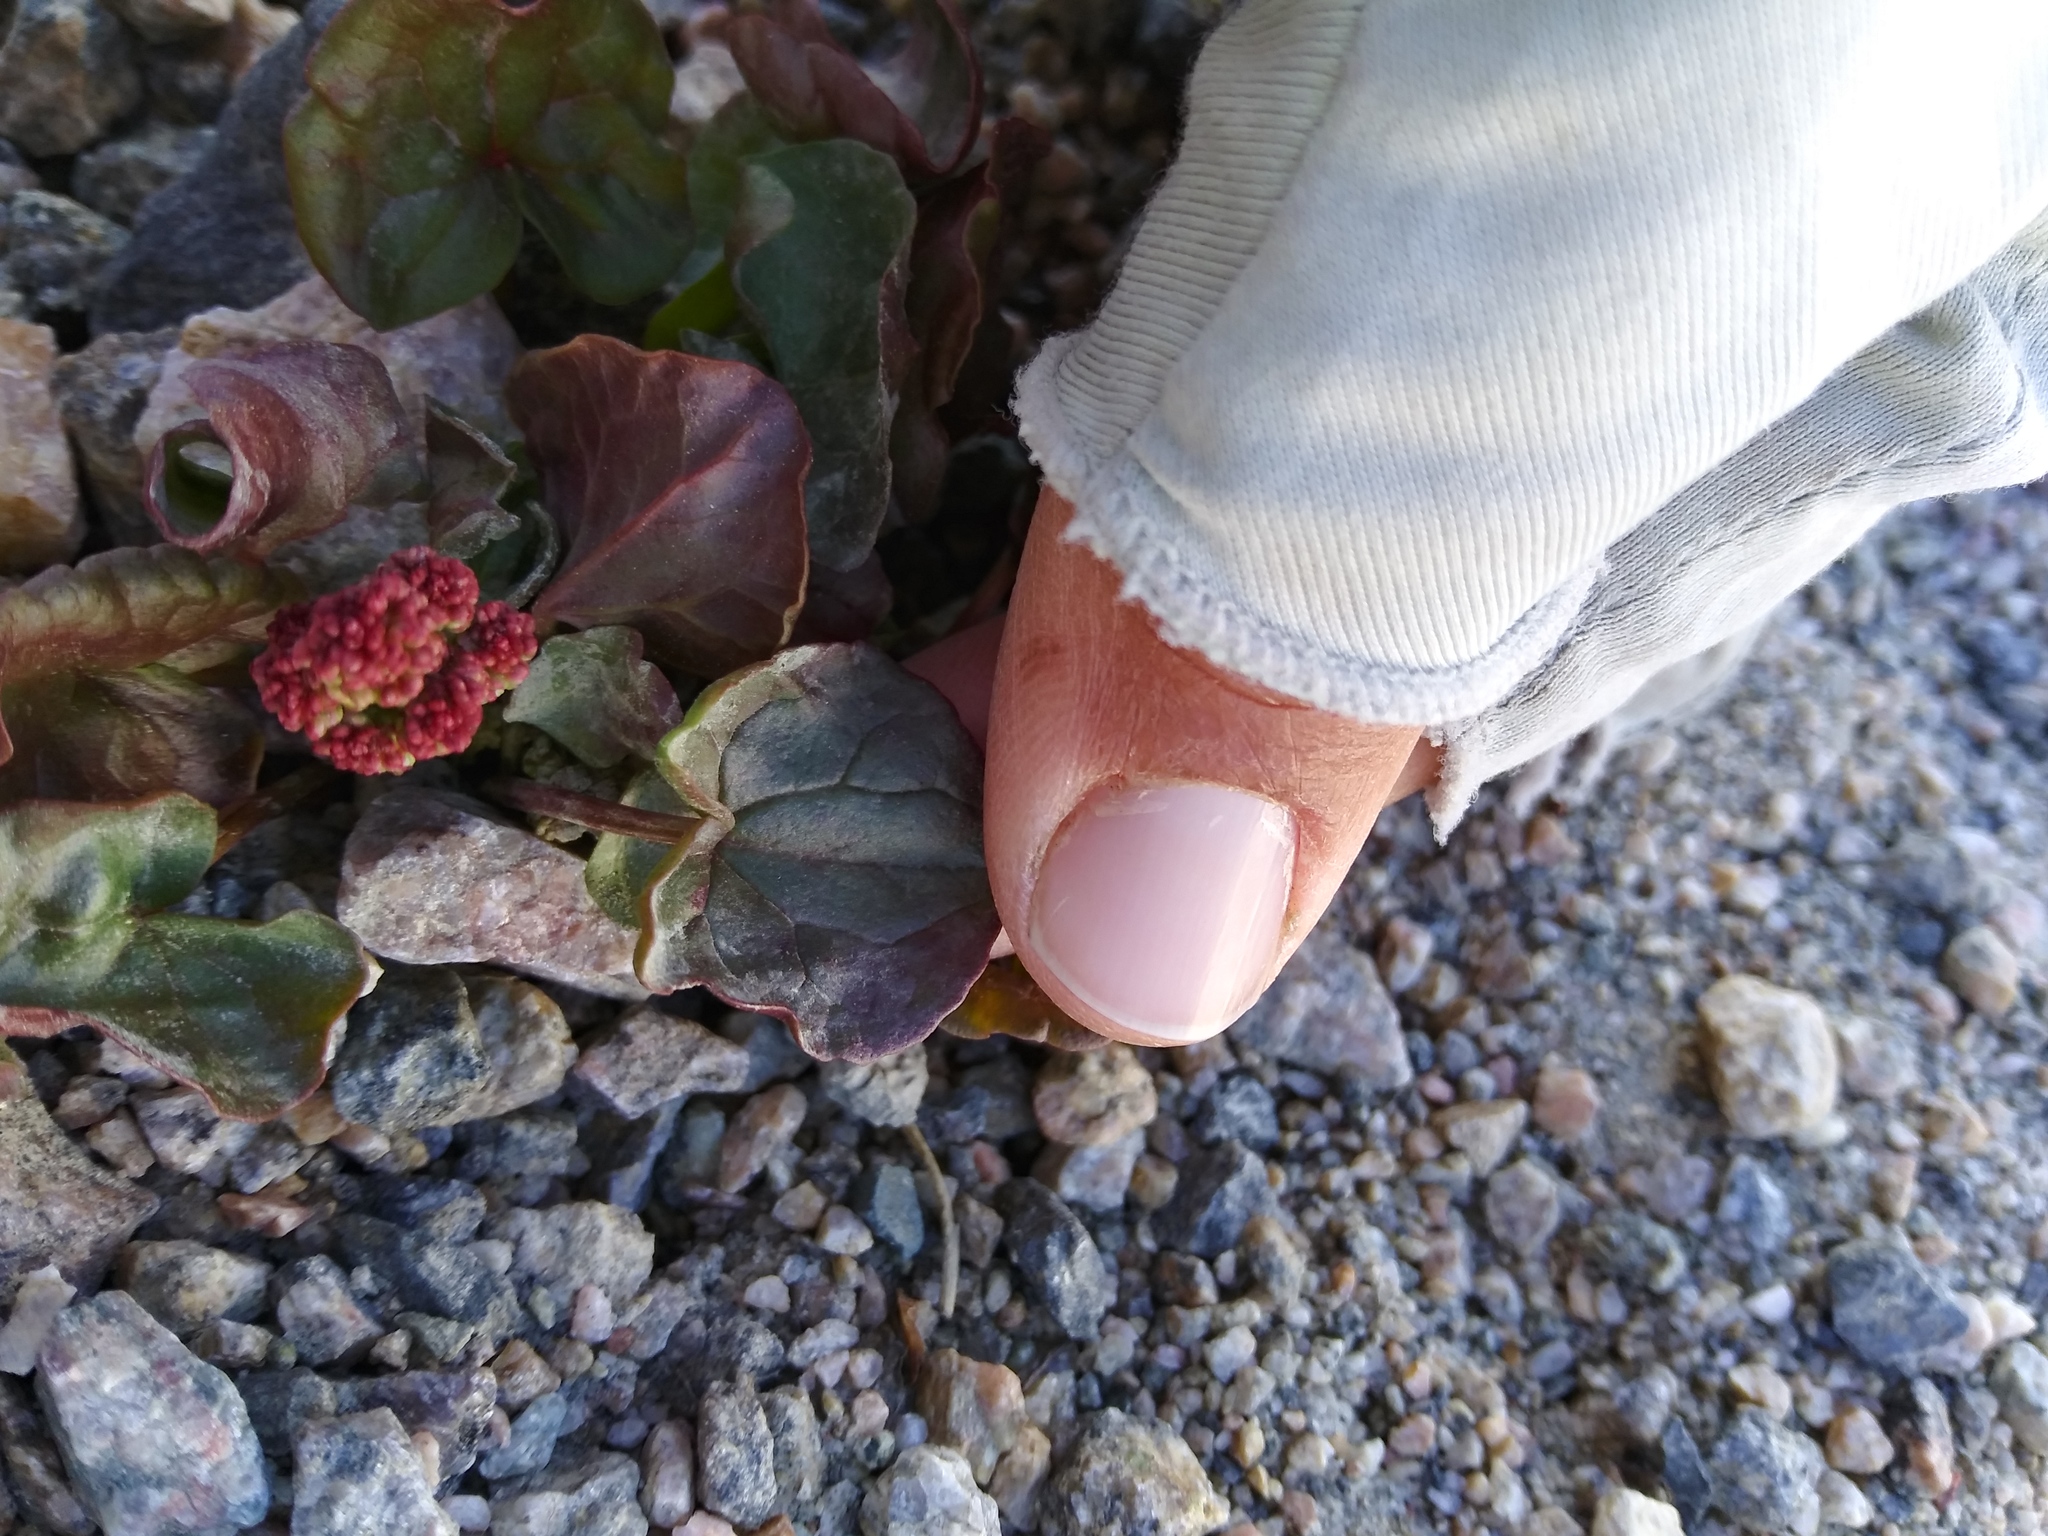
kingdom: Plantae
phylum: Tracheophyta
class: Magnoliopsida
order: Caryophyllales
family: Polygonaceae
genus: Oxyria
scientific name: Oxyria digyna
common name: Alpine mountain-sorrel
